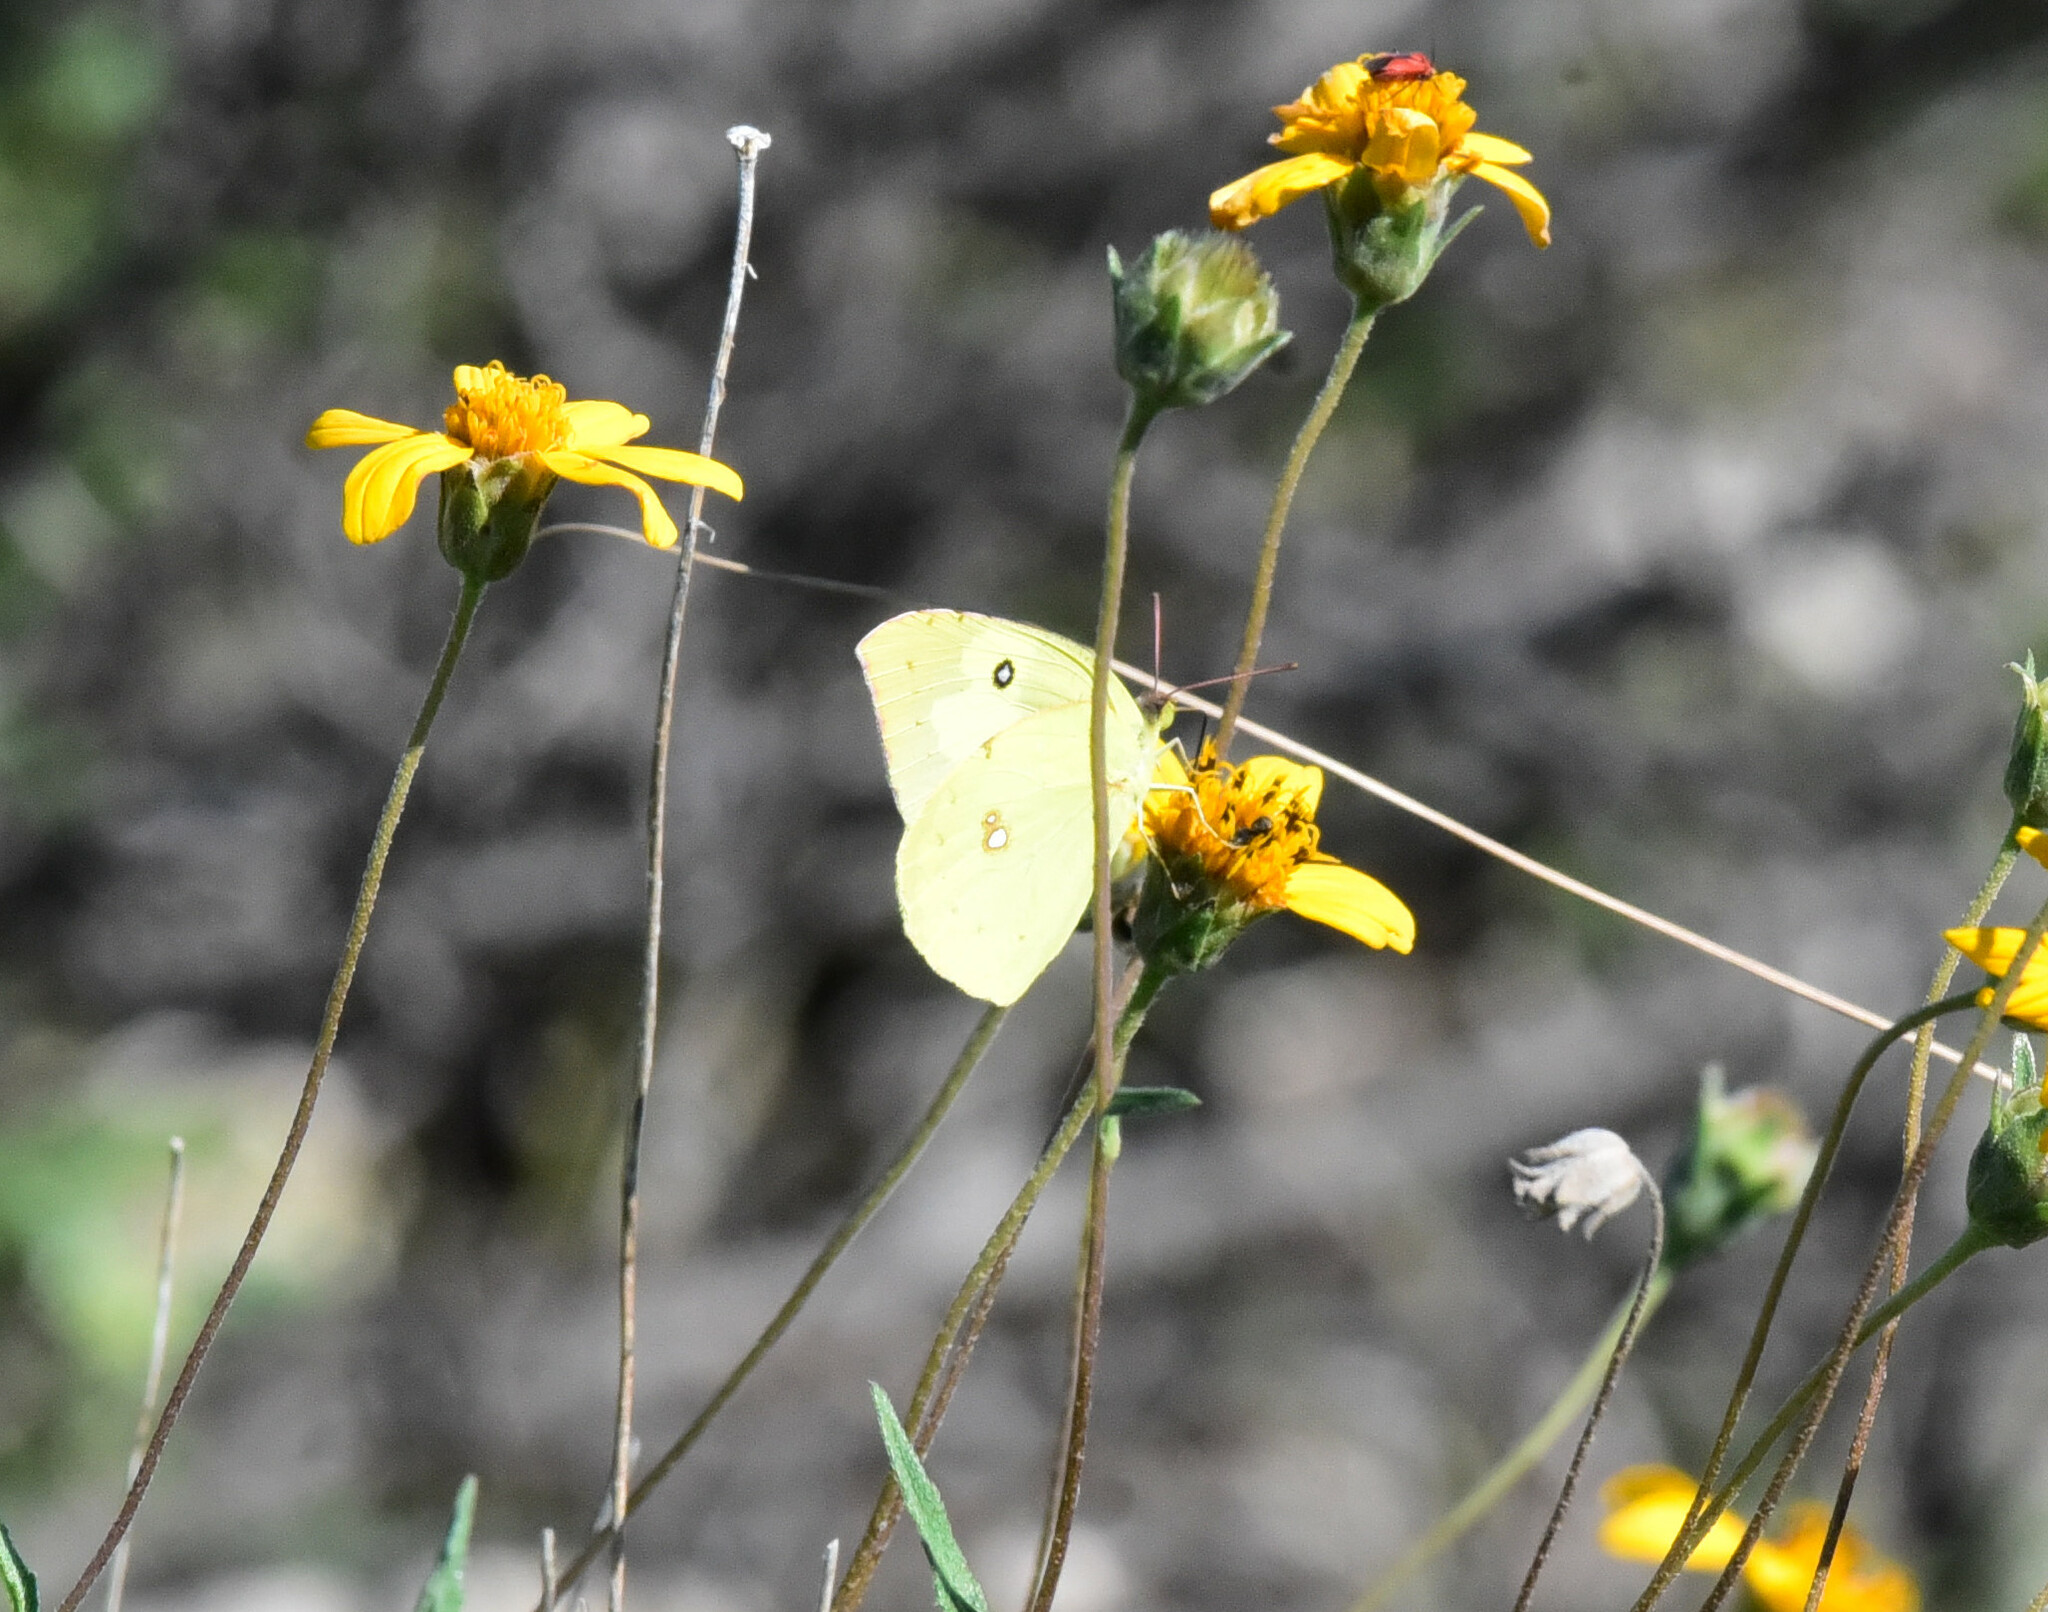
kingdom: Animalia
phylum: Arthropoda
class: Insecta
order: Lepidoptera
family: Pieridae
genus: Zerene
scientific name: Zerene cesonia
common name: Southern dogface
